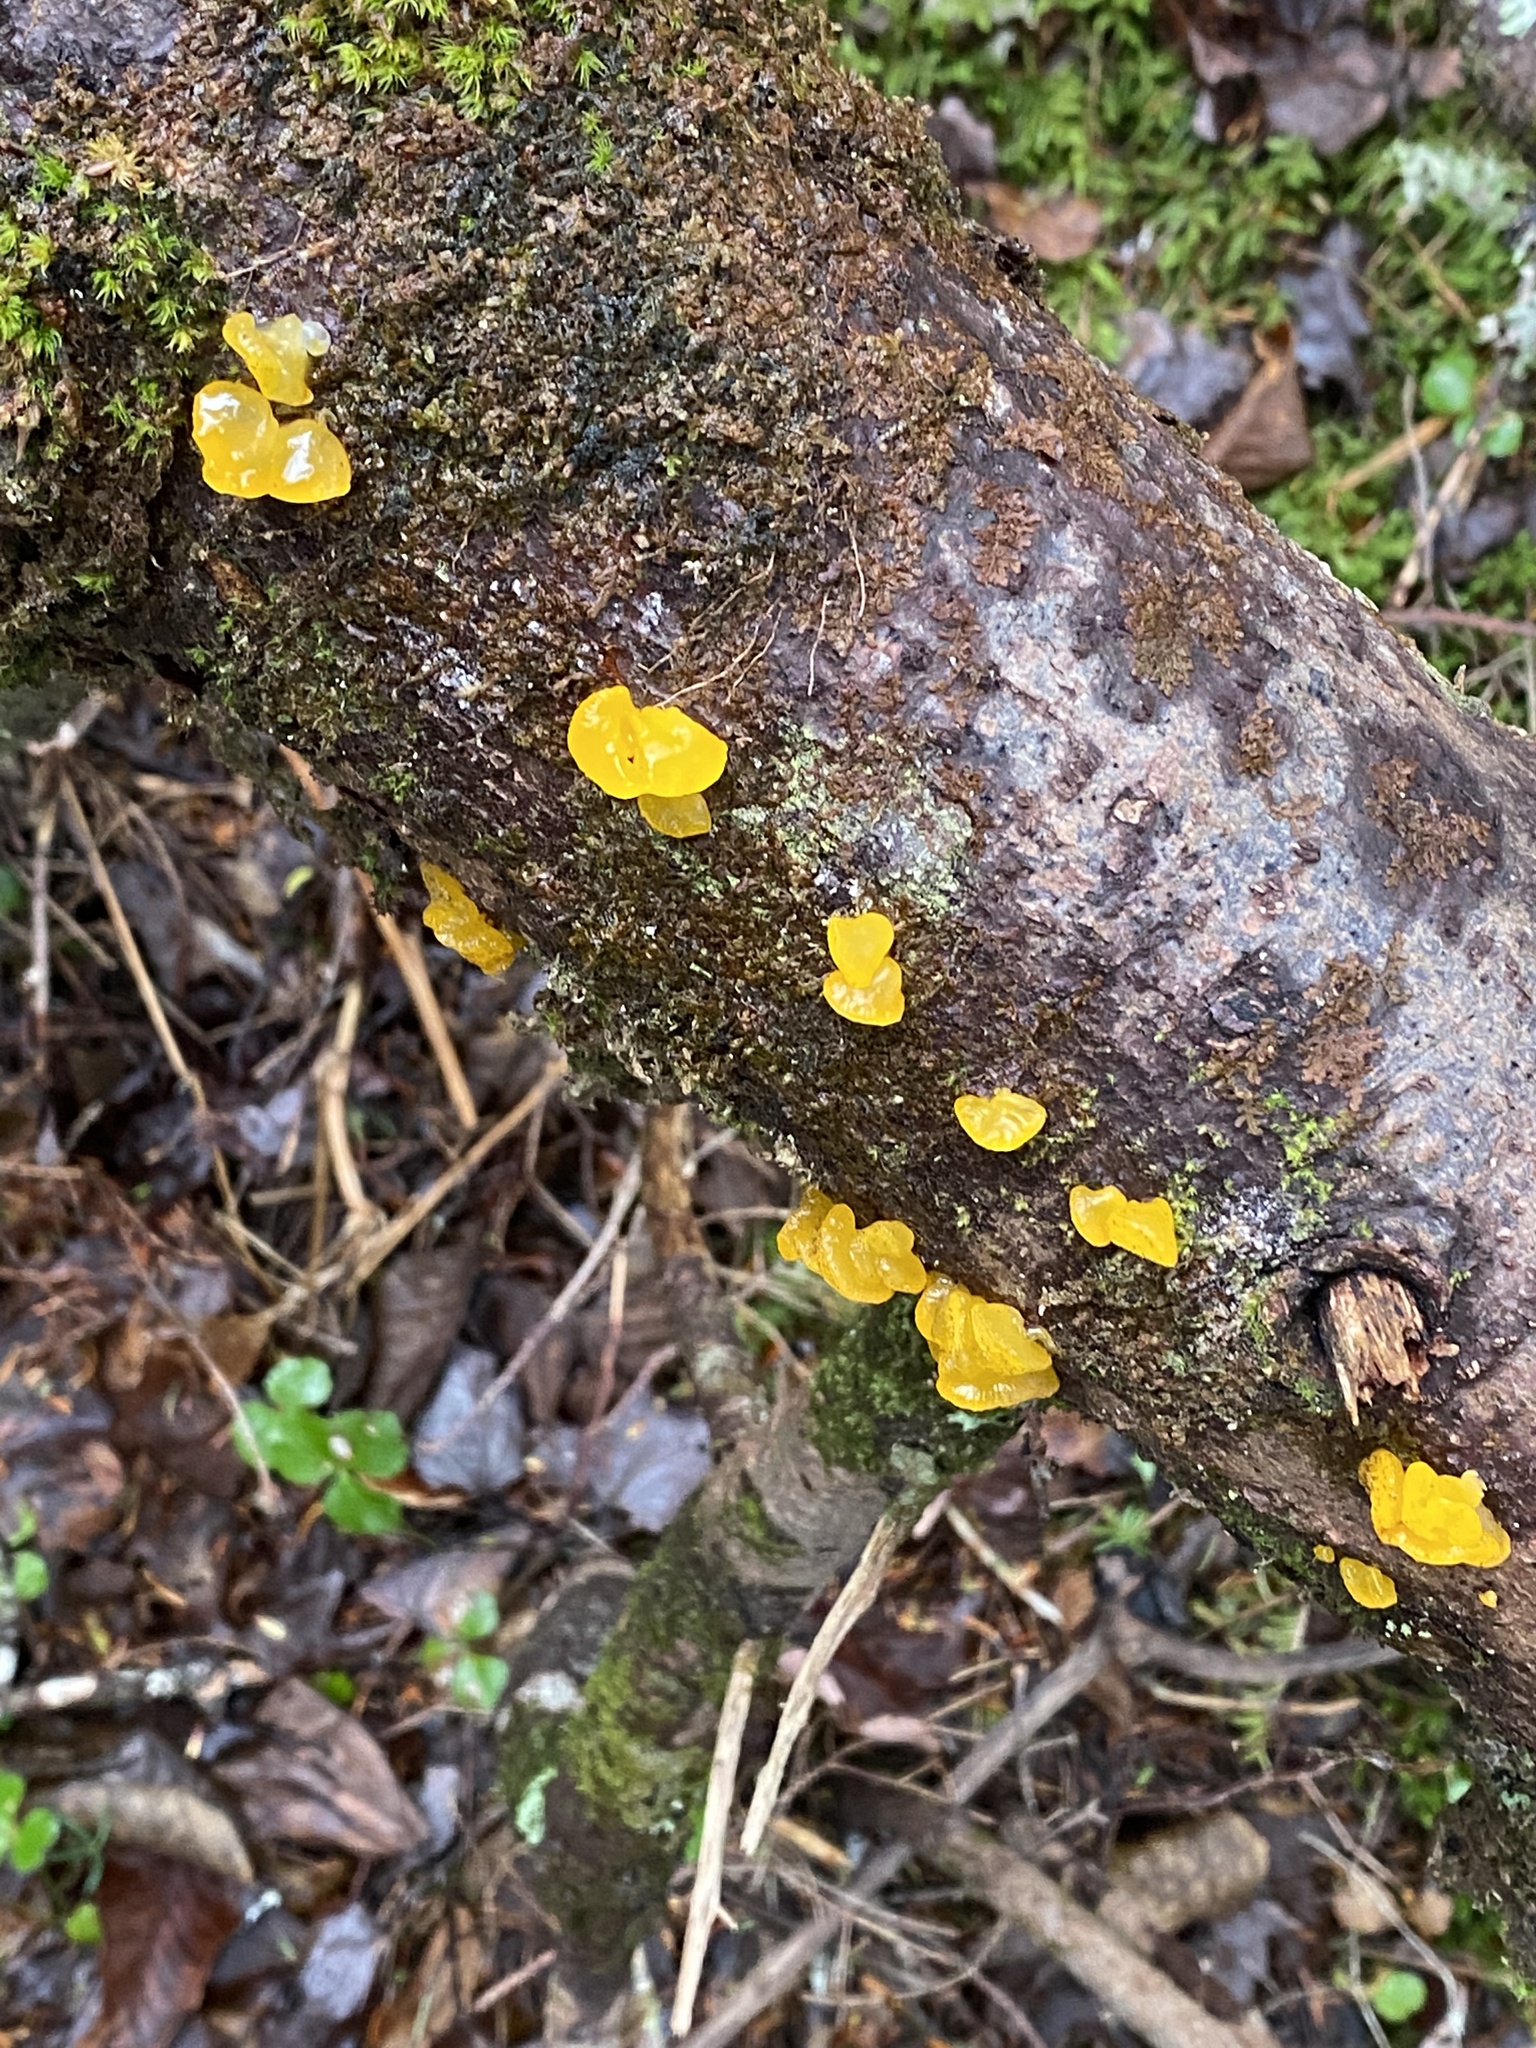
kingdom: Fungi
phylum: Basidiomycota
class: Dacrymycetes
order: Dacrymycetales
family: Dacrymycetaceae
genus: Dacrymyces
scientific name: Dacrymyces chrysospermus
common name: Orange jelly spot
